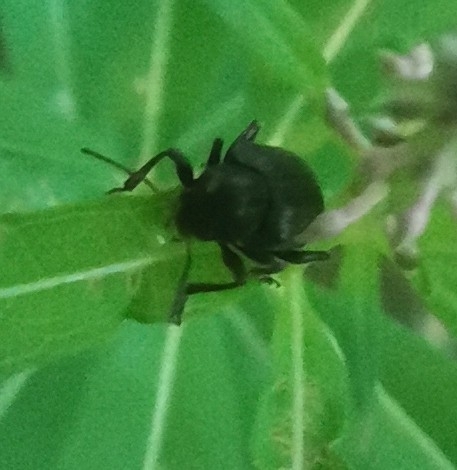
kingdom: Animalia
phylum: Arthropoda
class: Insecta
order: Coleoptera
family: Chrysomelidae
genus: Bromius
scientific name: Bromius obscurus
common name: Western grape rootworm
